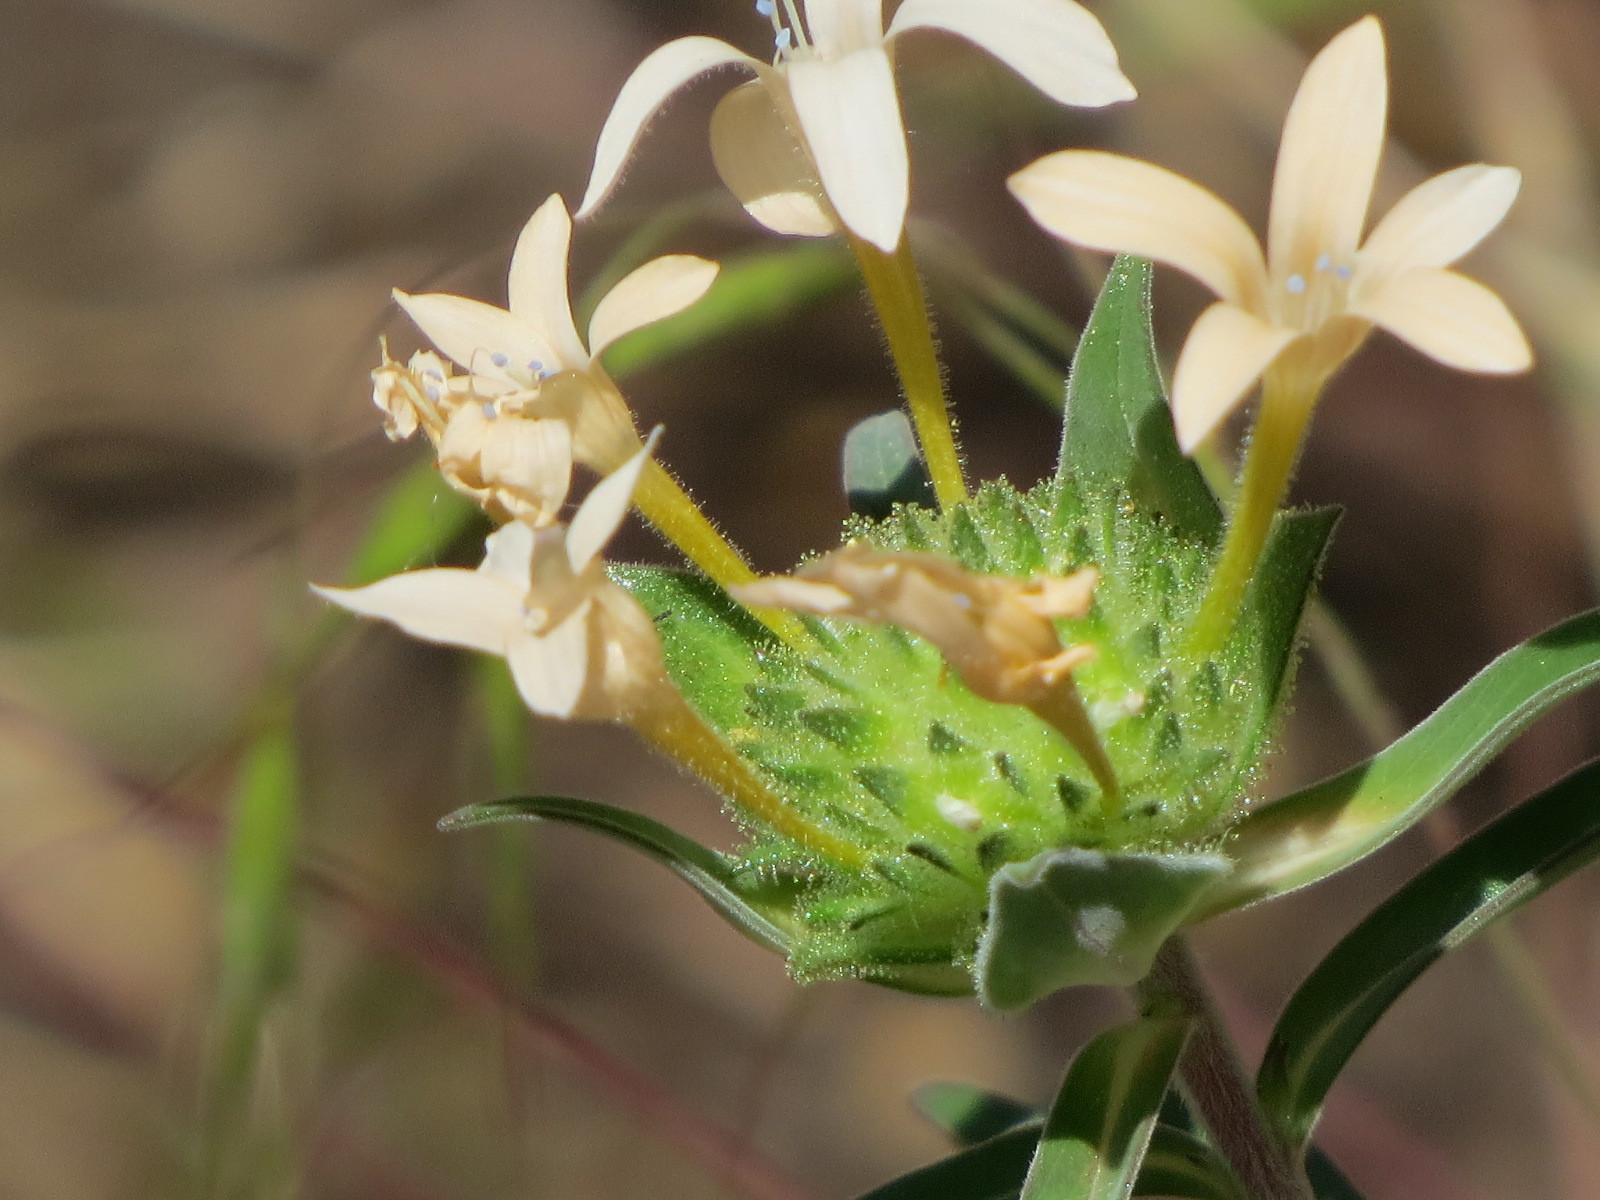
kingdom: Plantae
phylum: Tracheophyta
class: Magnoliopsida
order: Ericales
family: Polemoniaceae
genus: Collomia
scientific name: Collomia grandiflora
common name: California strawflower
